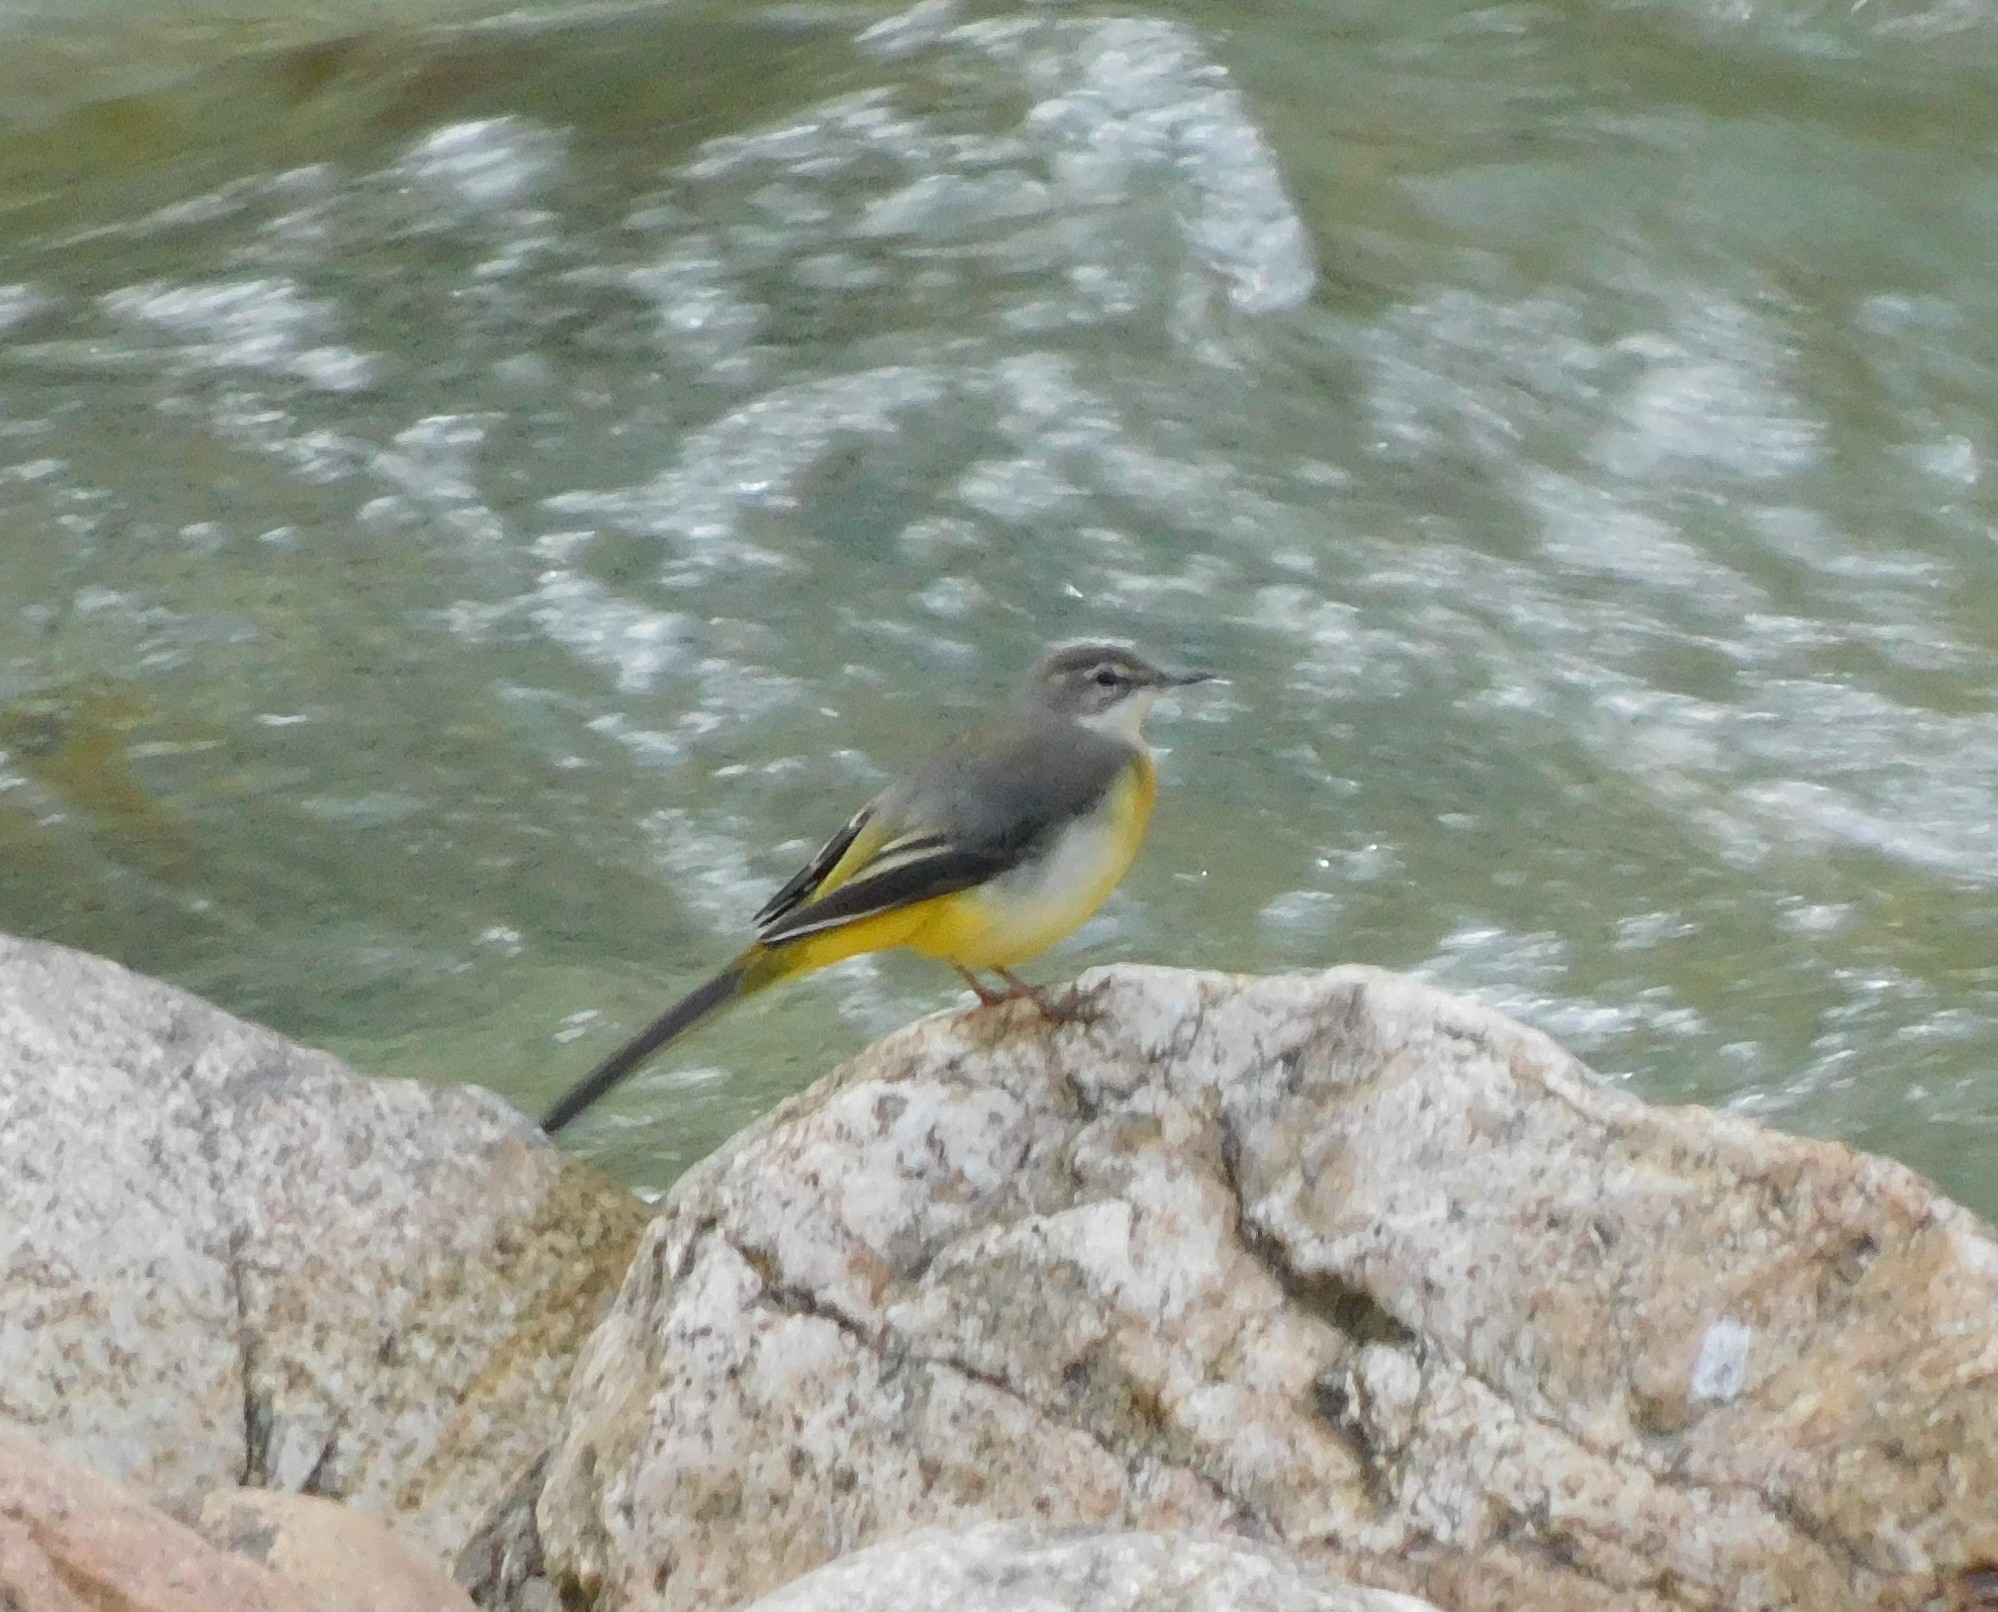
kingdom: Animalia
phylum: Chordata
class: Aves
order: Passeriformes
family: Motacillidae
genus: Motacilla
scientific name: Motacilla cinerea
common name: Grey wagtail
